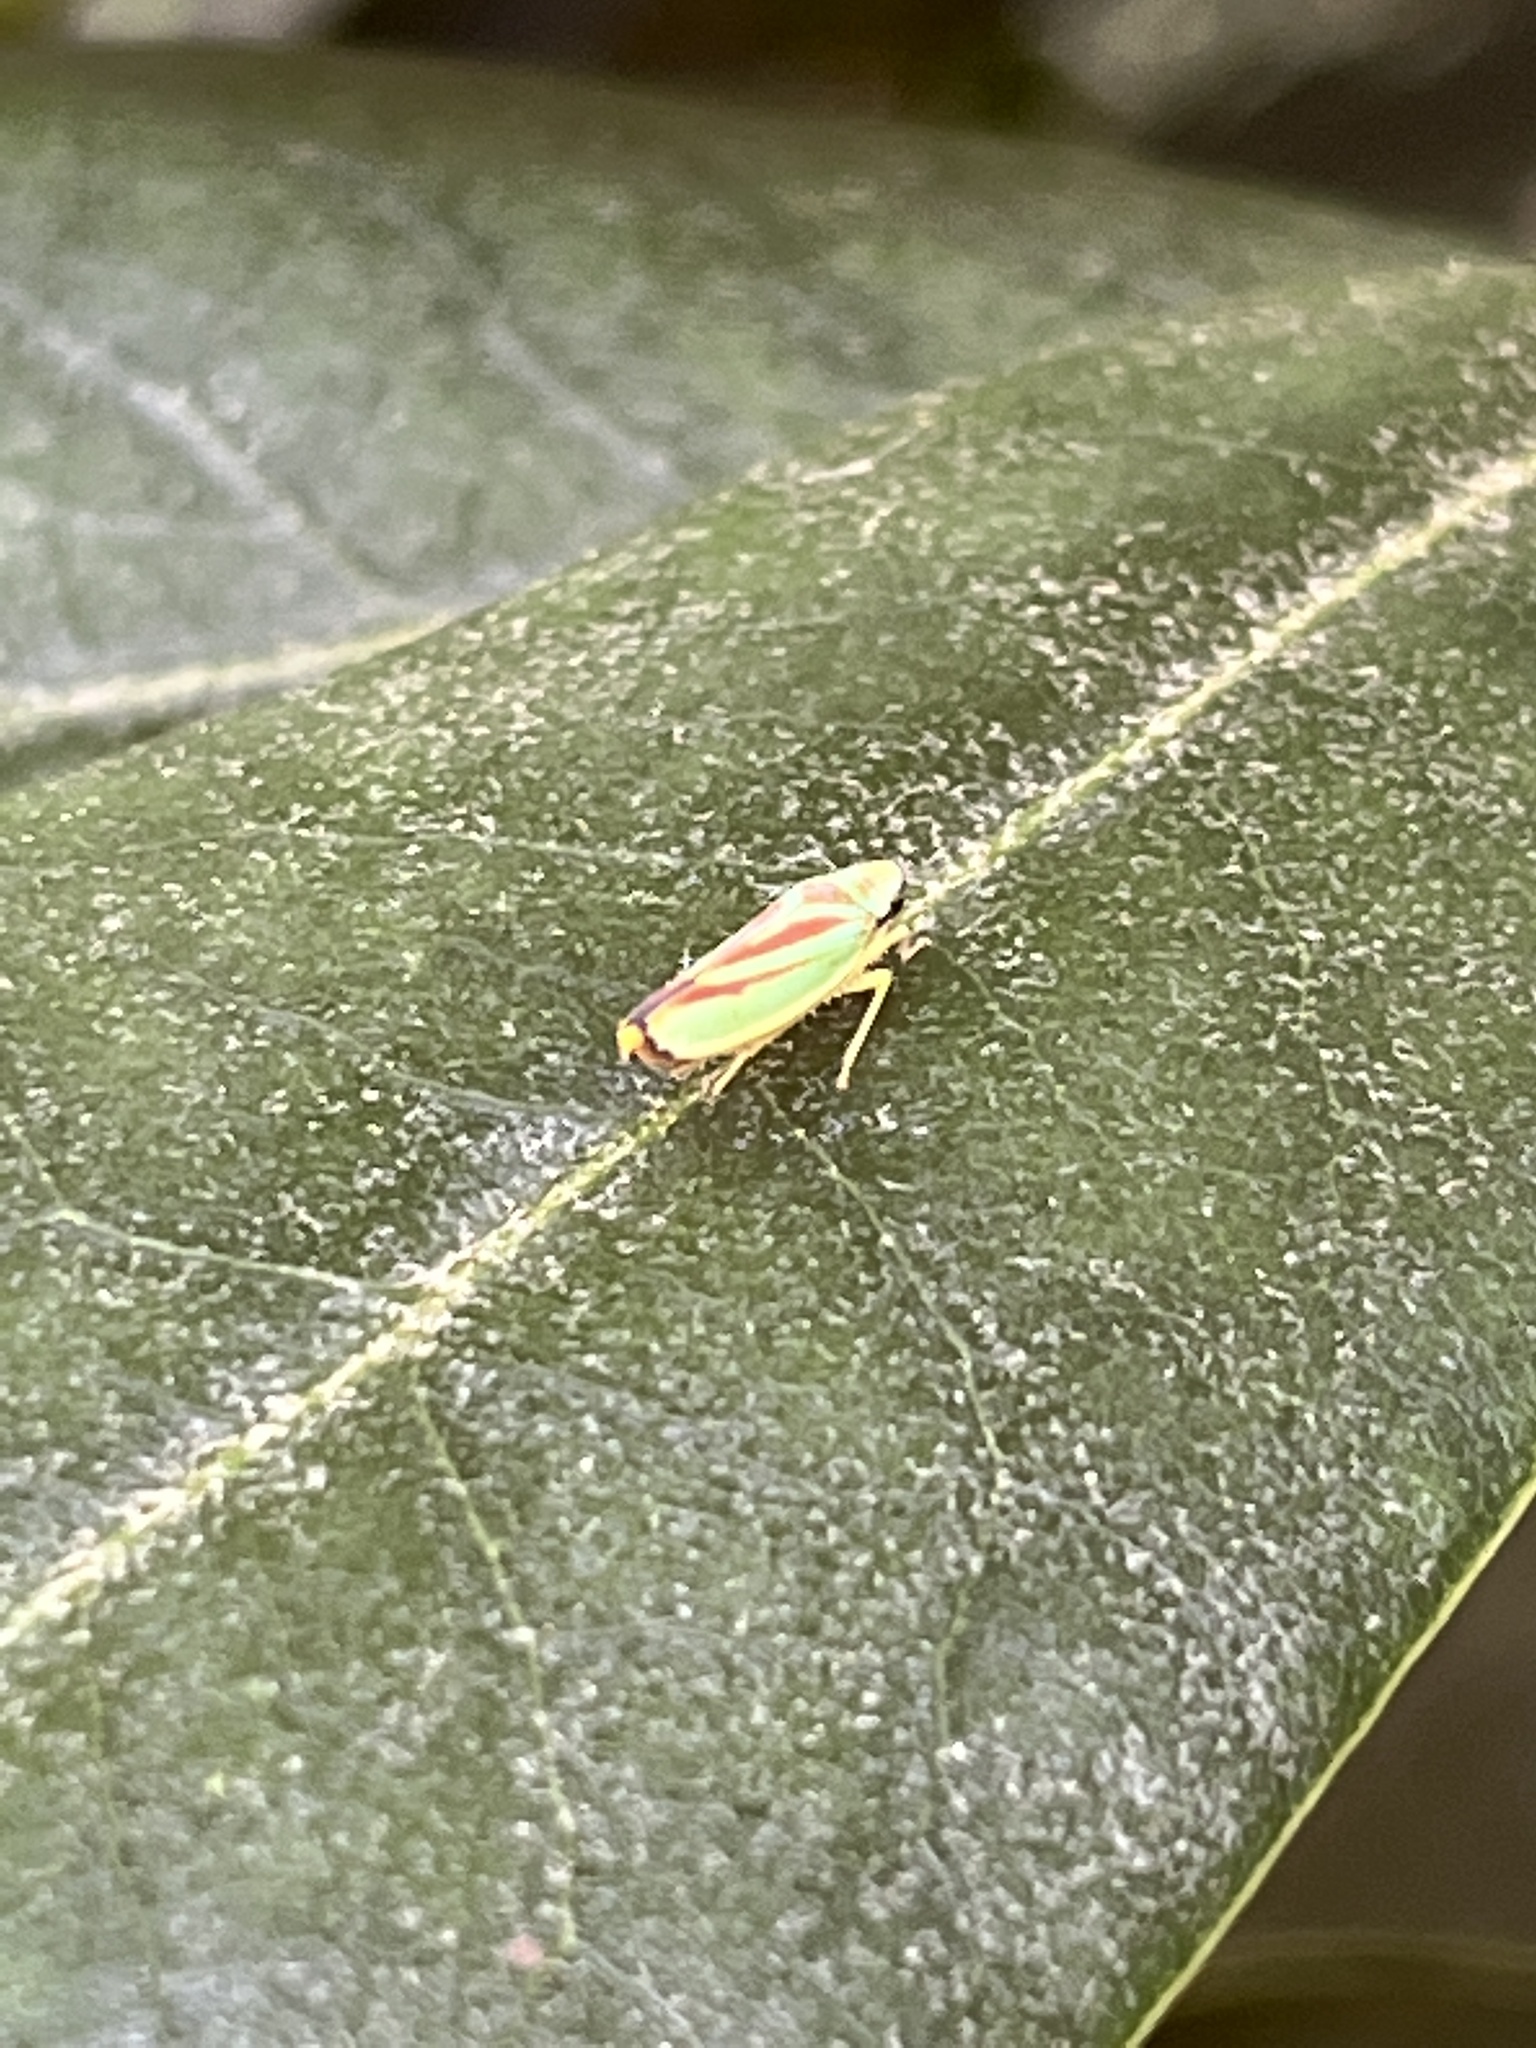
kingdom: Animalia
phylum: Arthropoda
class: Insecta
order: Hemiptera
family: Cicadellidae
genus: Graphocephala
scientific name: Graphocephala fennahi
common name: Rhododendron leafhopper
